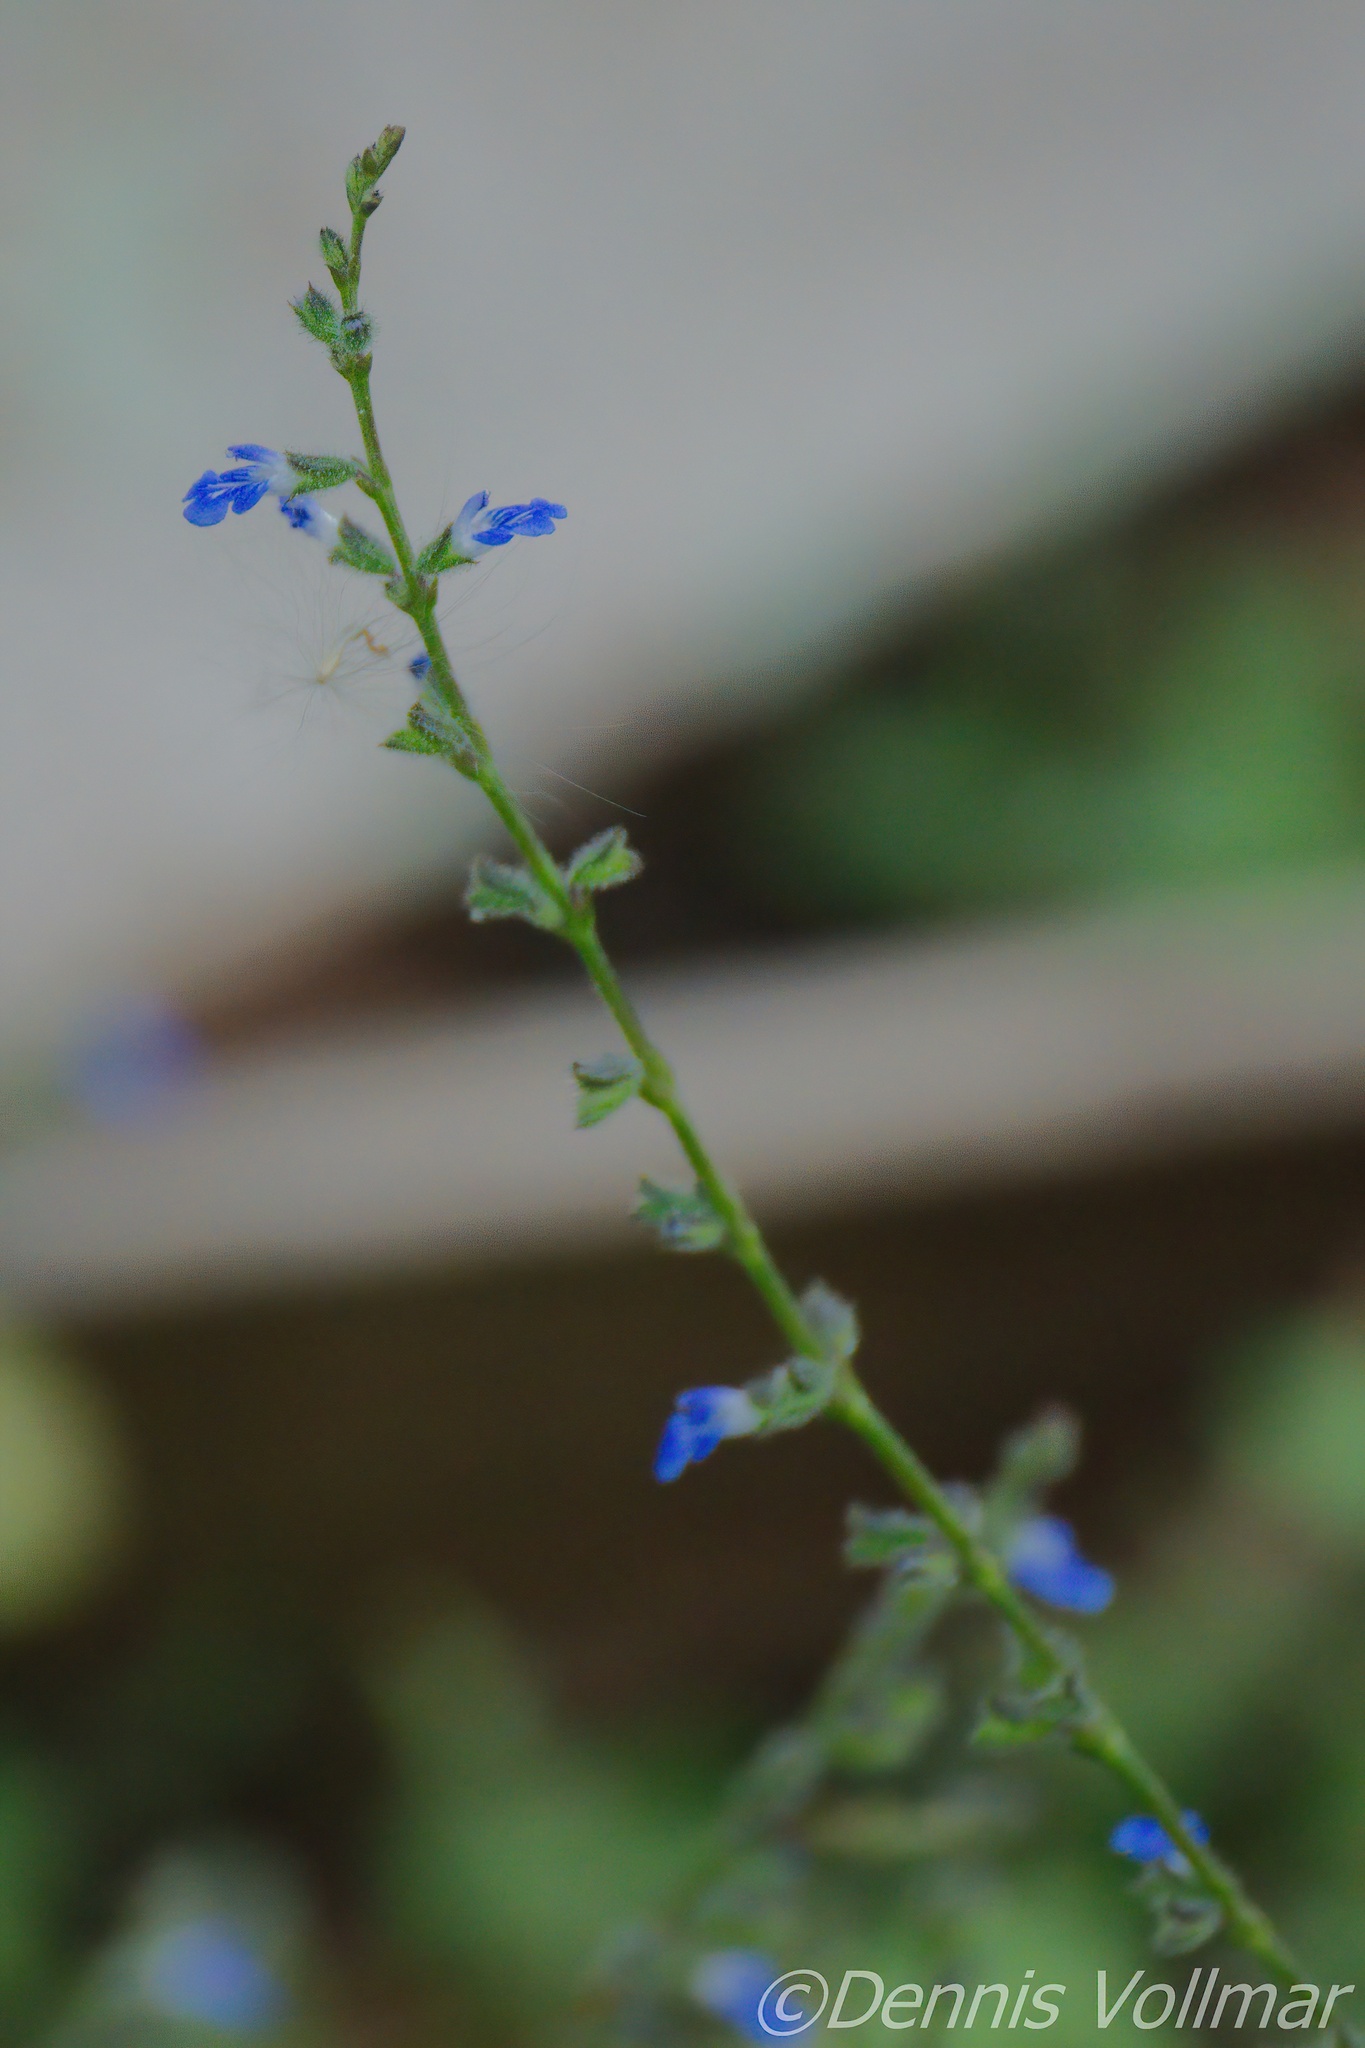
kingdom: Plantae
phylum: Tracheophyta
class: Magnoliopsida
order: Lamiales
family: Lamiaceae
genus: Salvia
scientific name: Salvia misella
